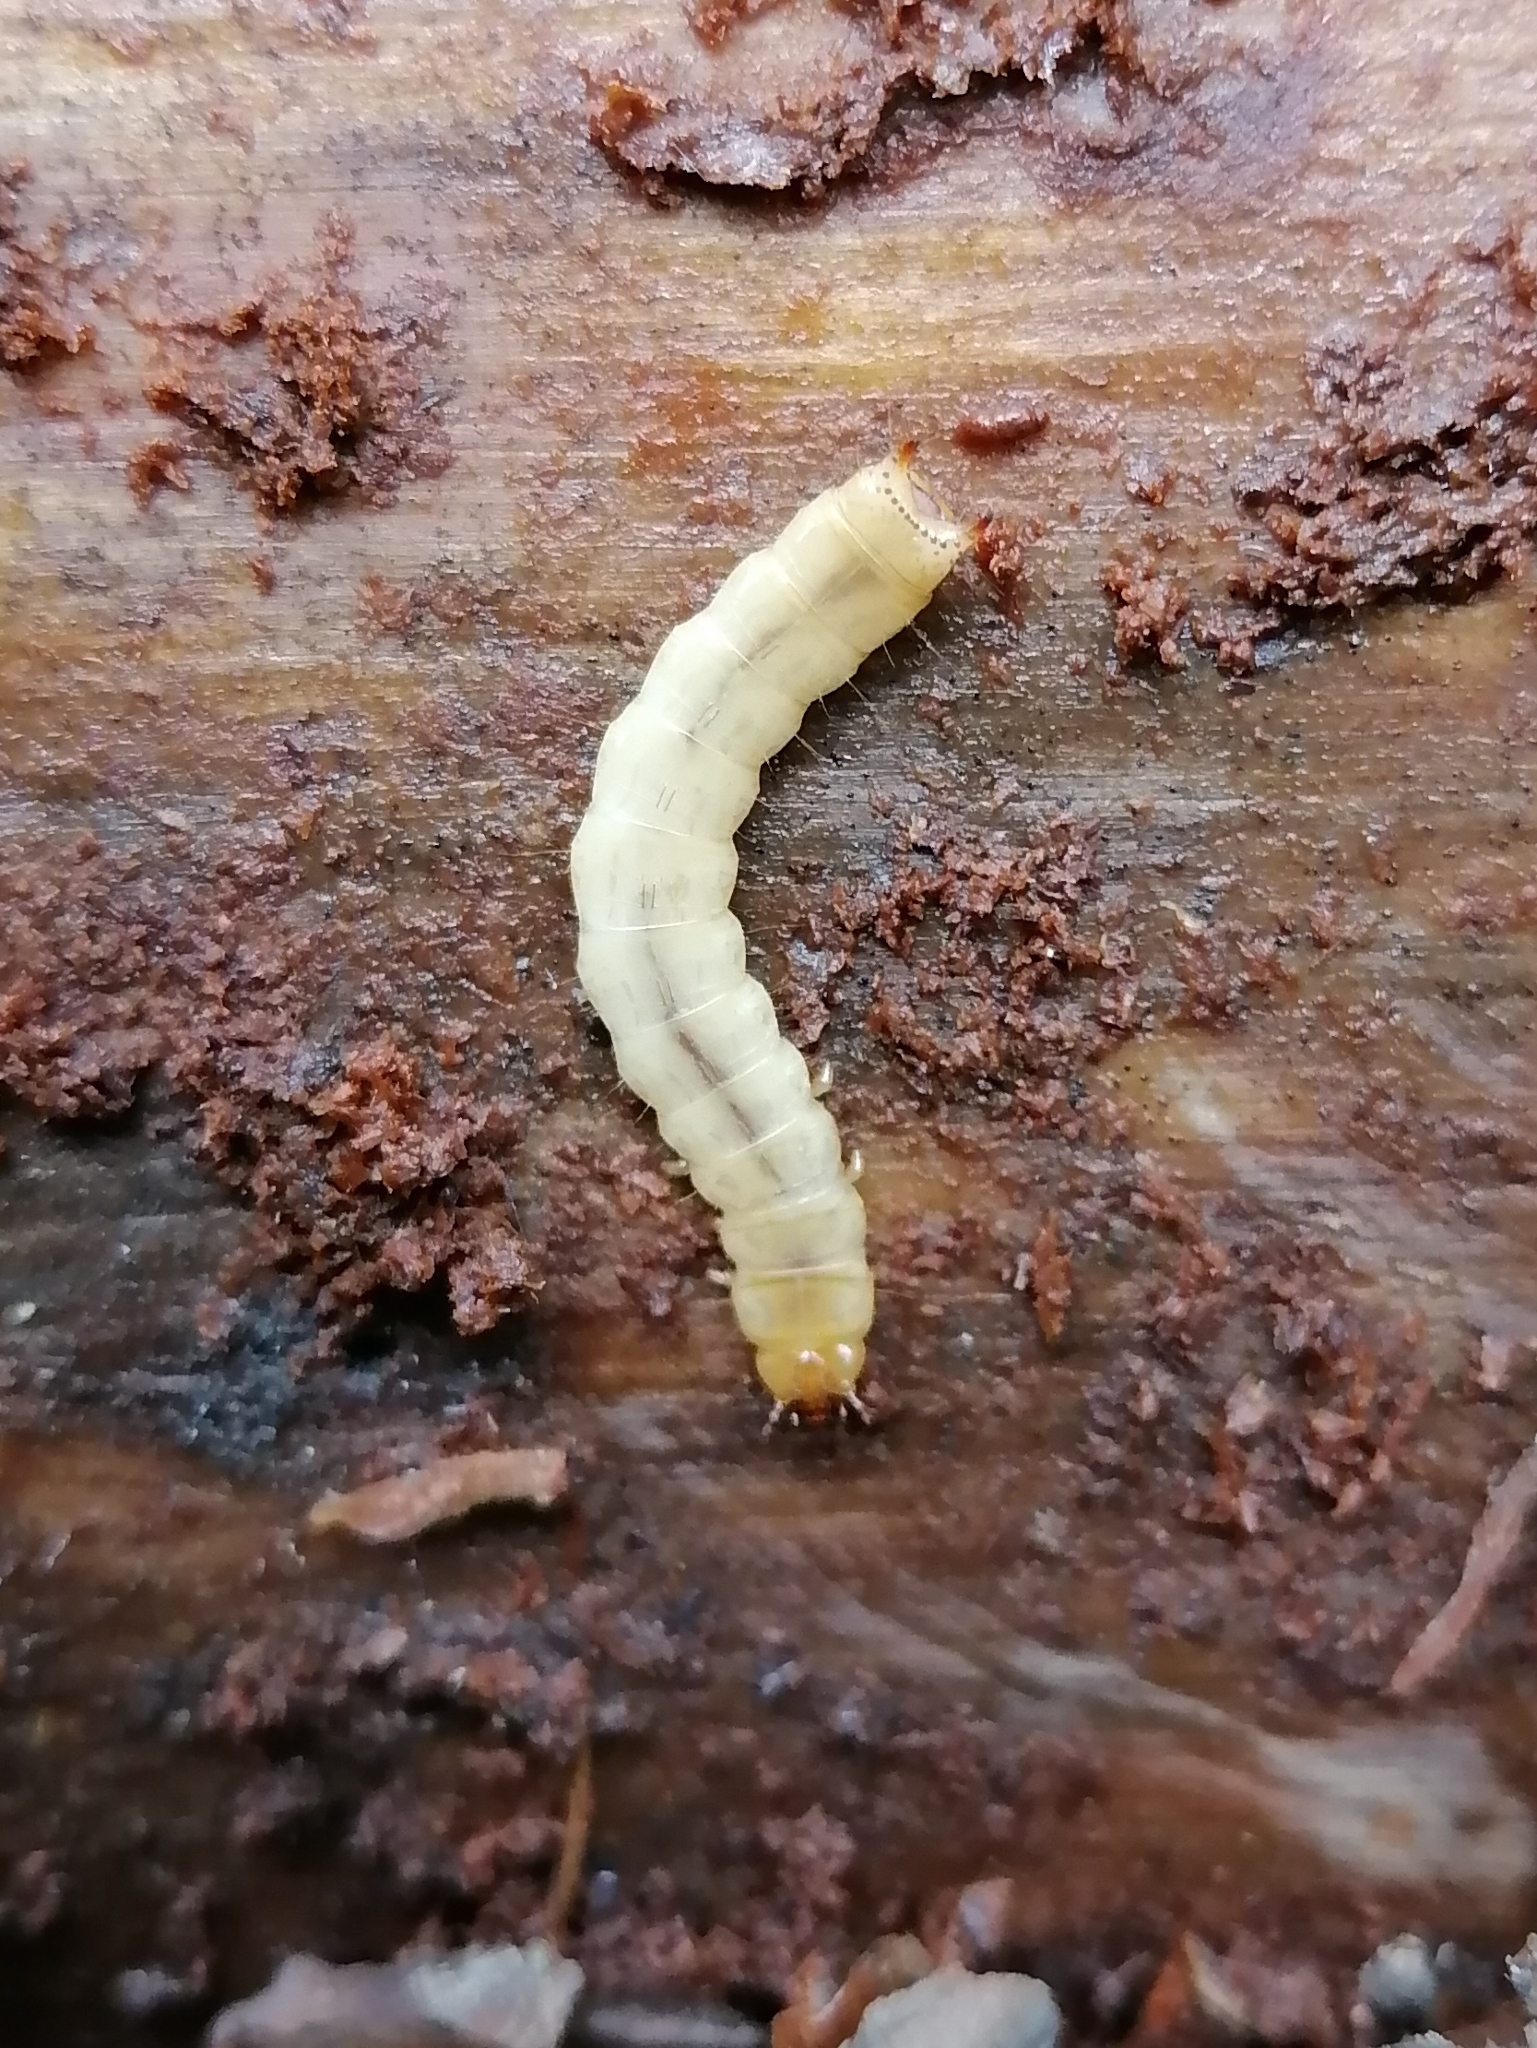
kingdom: Animalia
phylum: Arthropoda
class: Insecta
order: Coleoptera
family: Pythidae
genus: Pytho
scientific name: Pytho depressus
